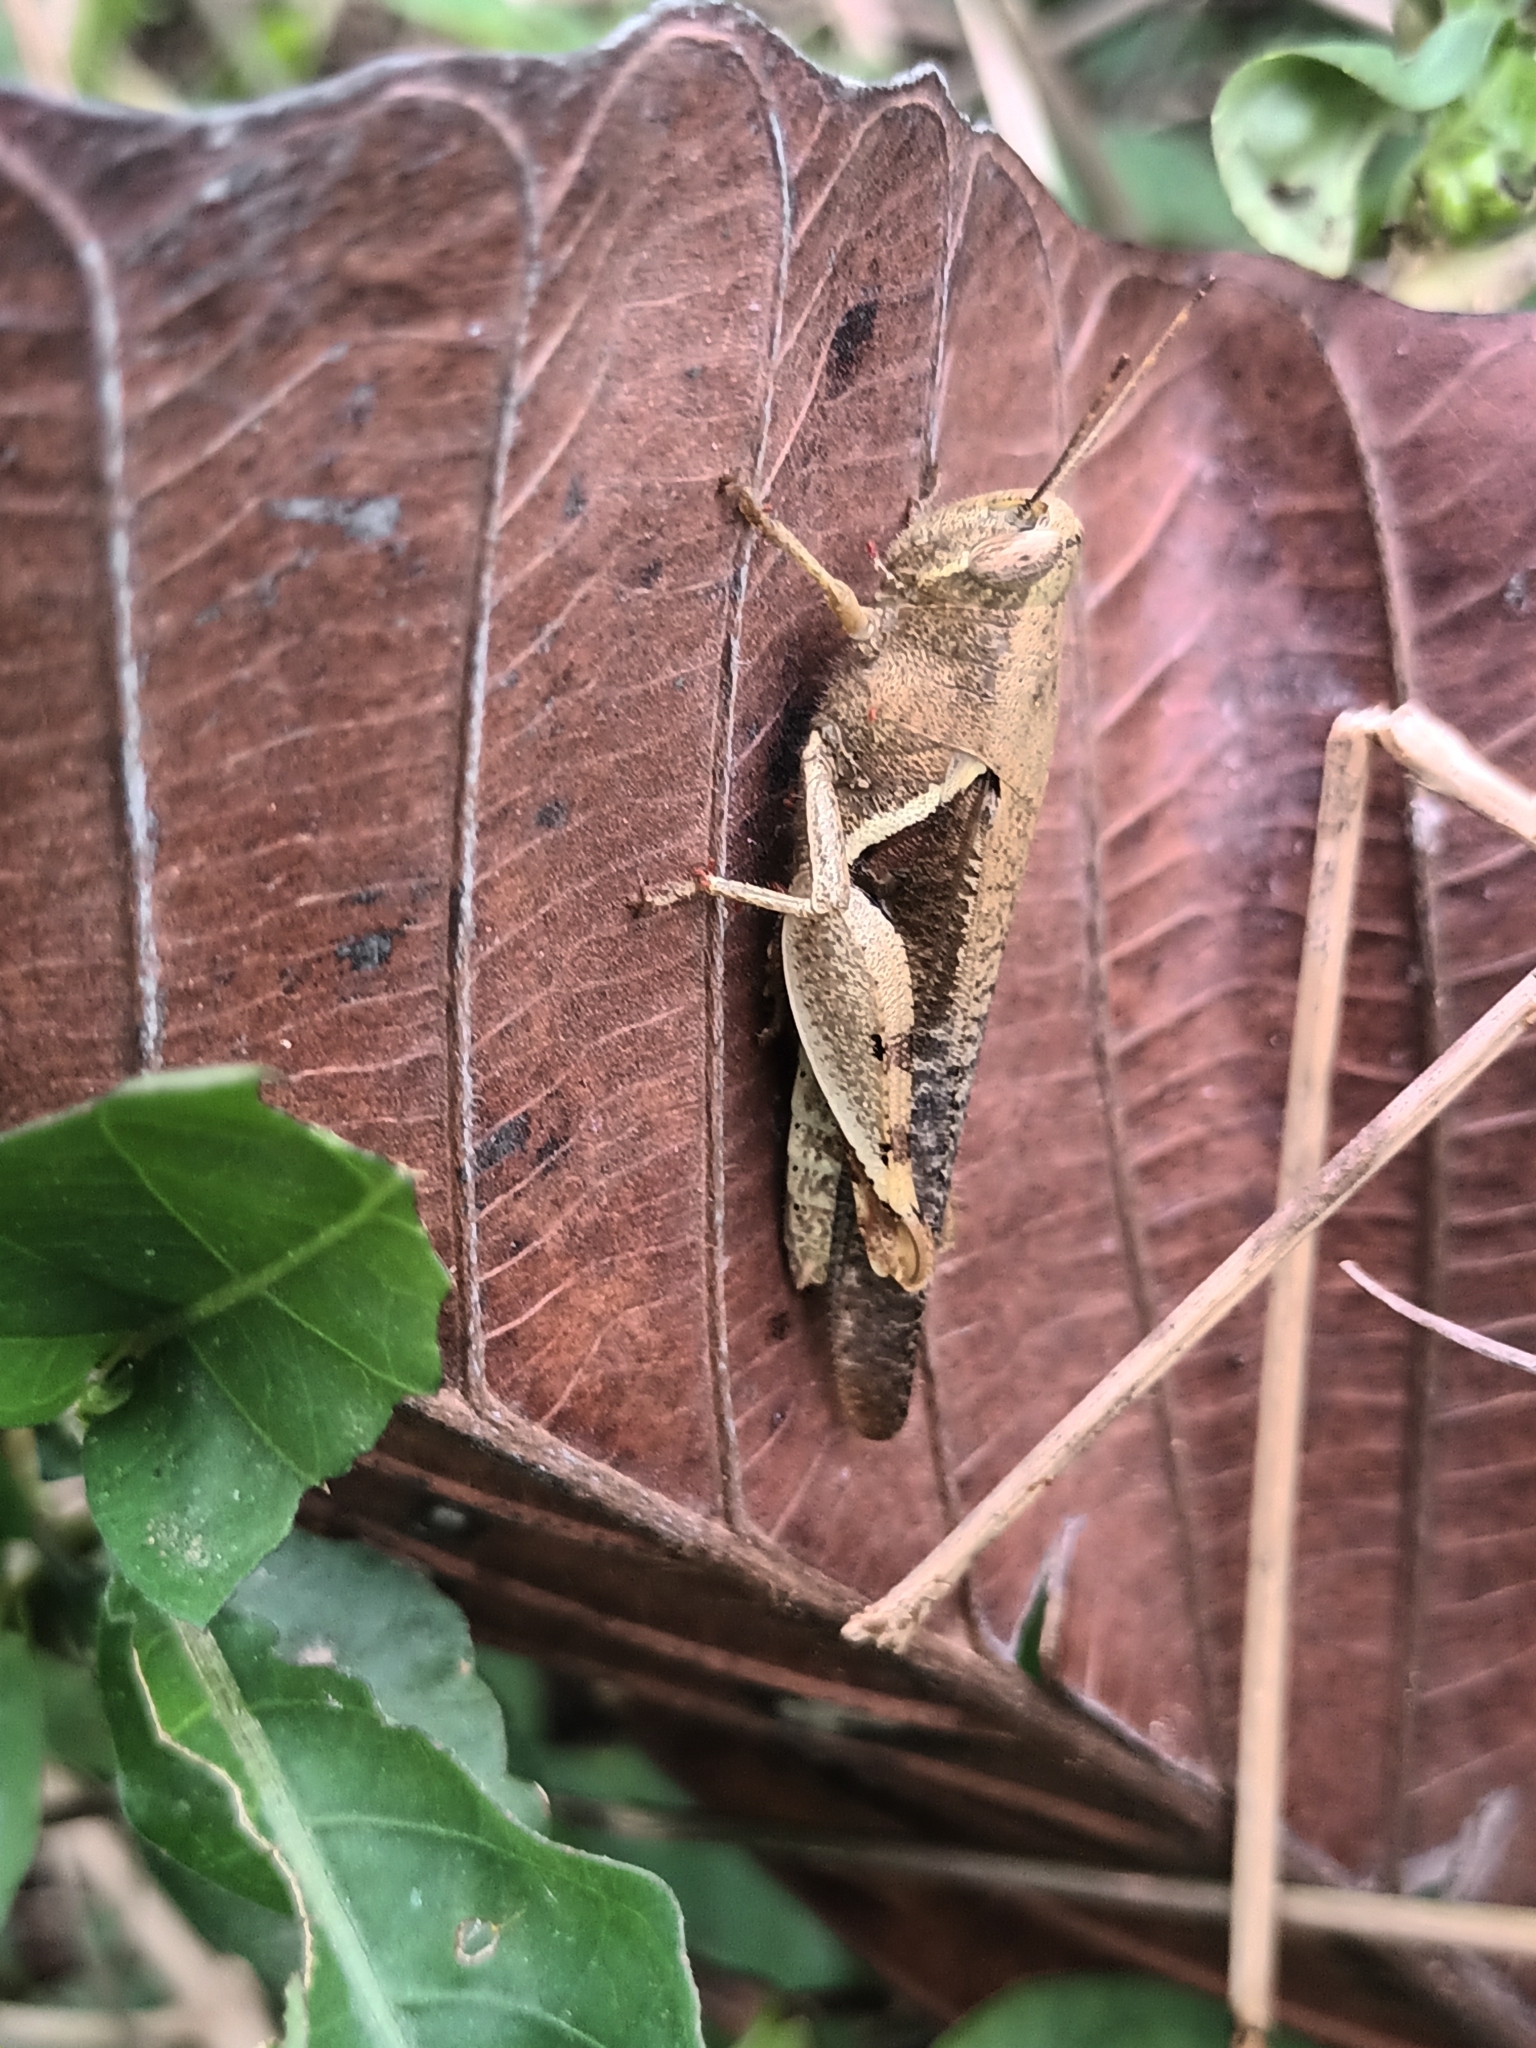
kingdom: Animalia
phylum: Arthropoda
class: Insecta
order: Orthoptera
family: Acrididae
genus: Diabolocatantops
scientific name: Diabolocatantops innotabilis
